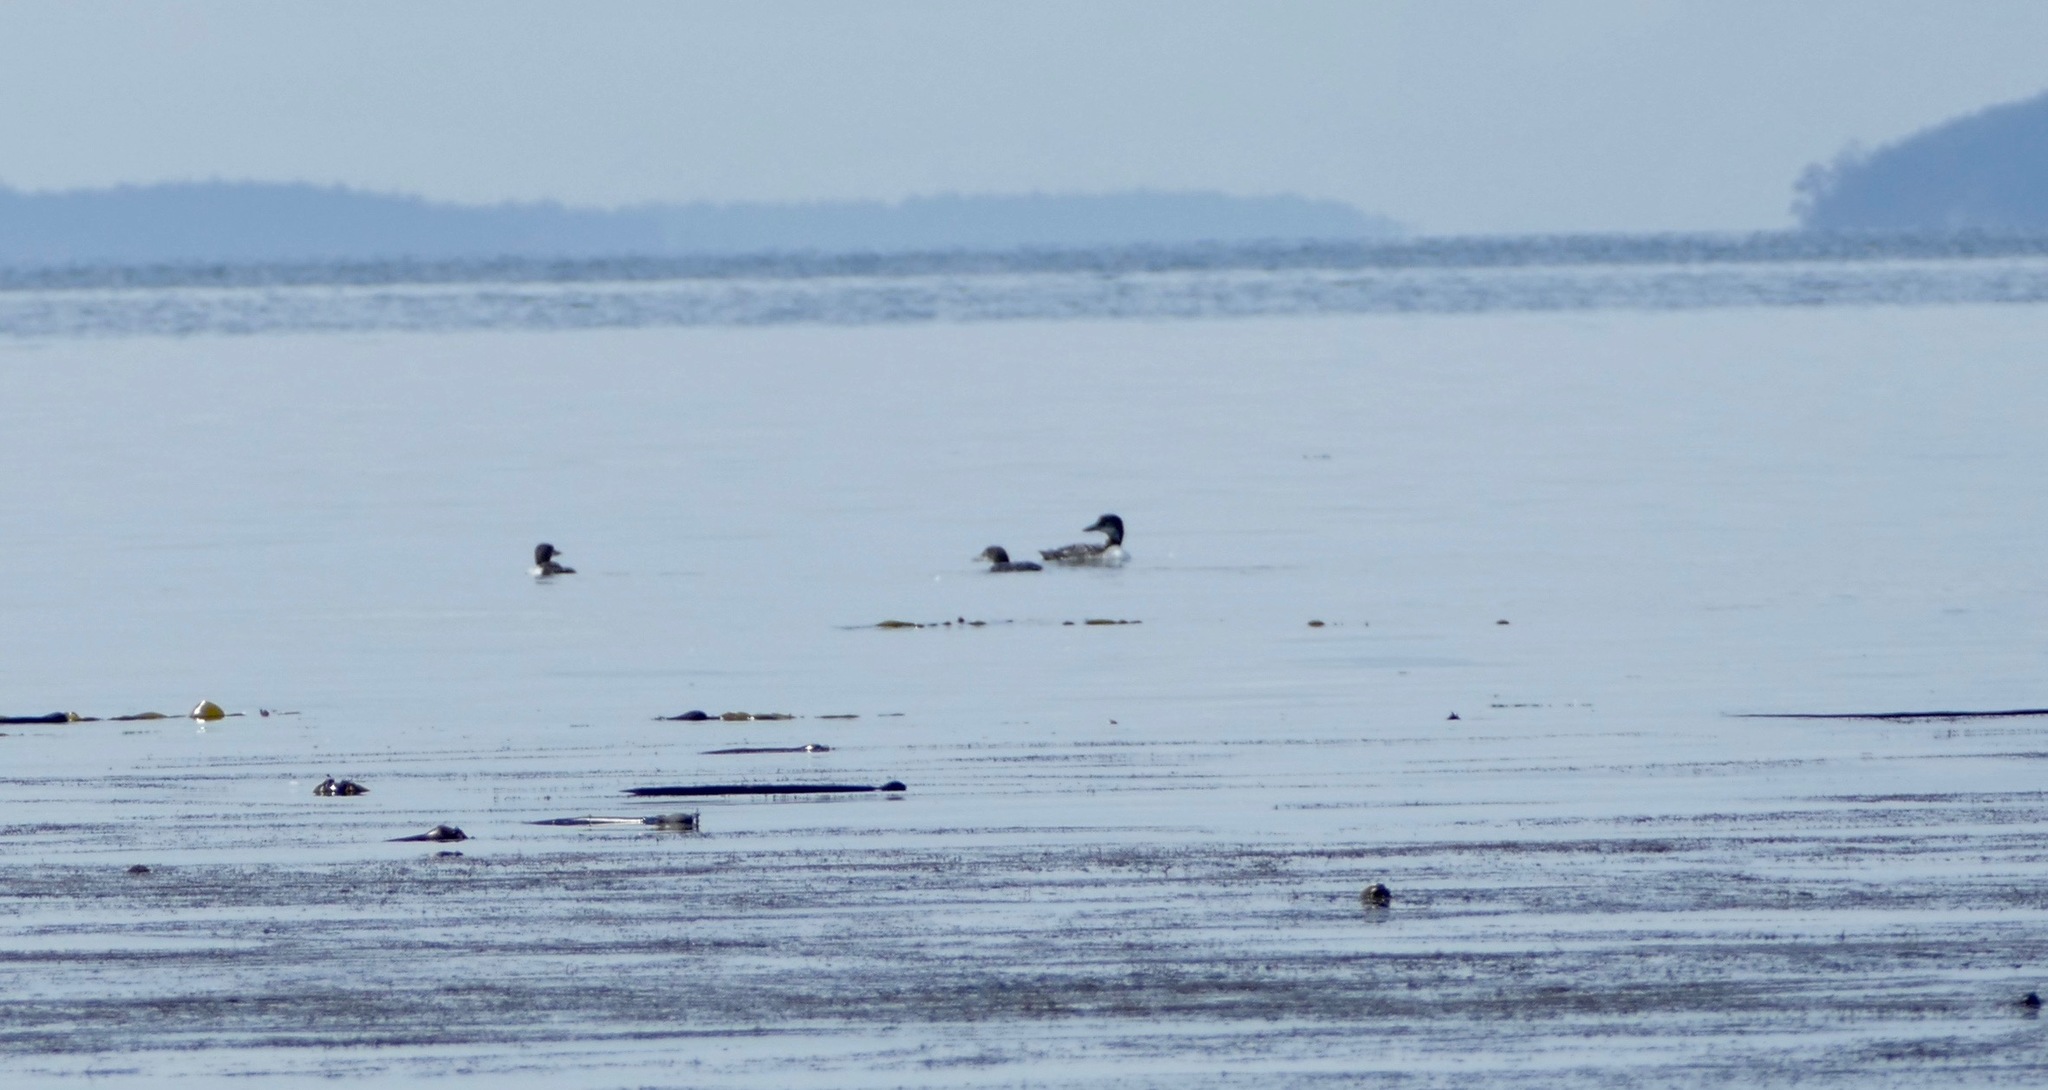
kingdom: Animalia
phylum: Chordata
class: Aves
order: Gaviiformes
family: Gaviidae
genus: Gavia
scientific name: Gavia immer
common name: Common loon
